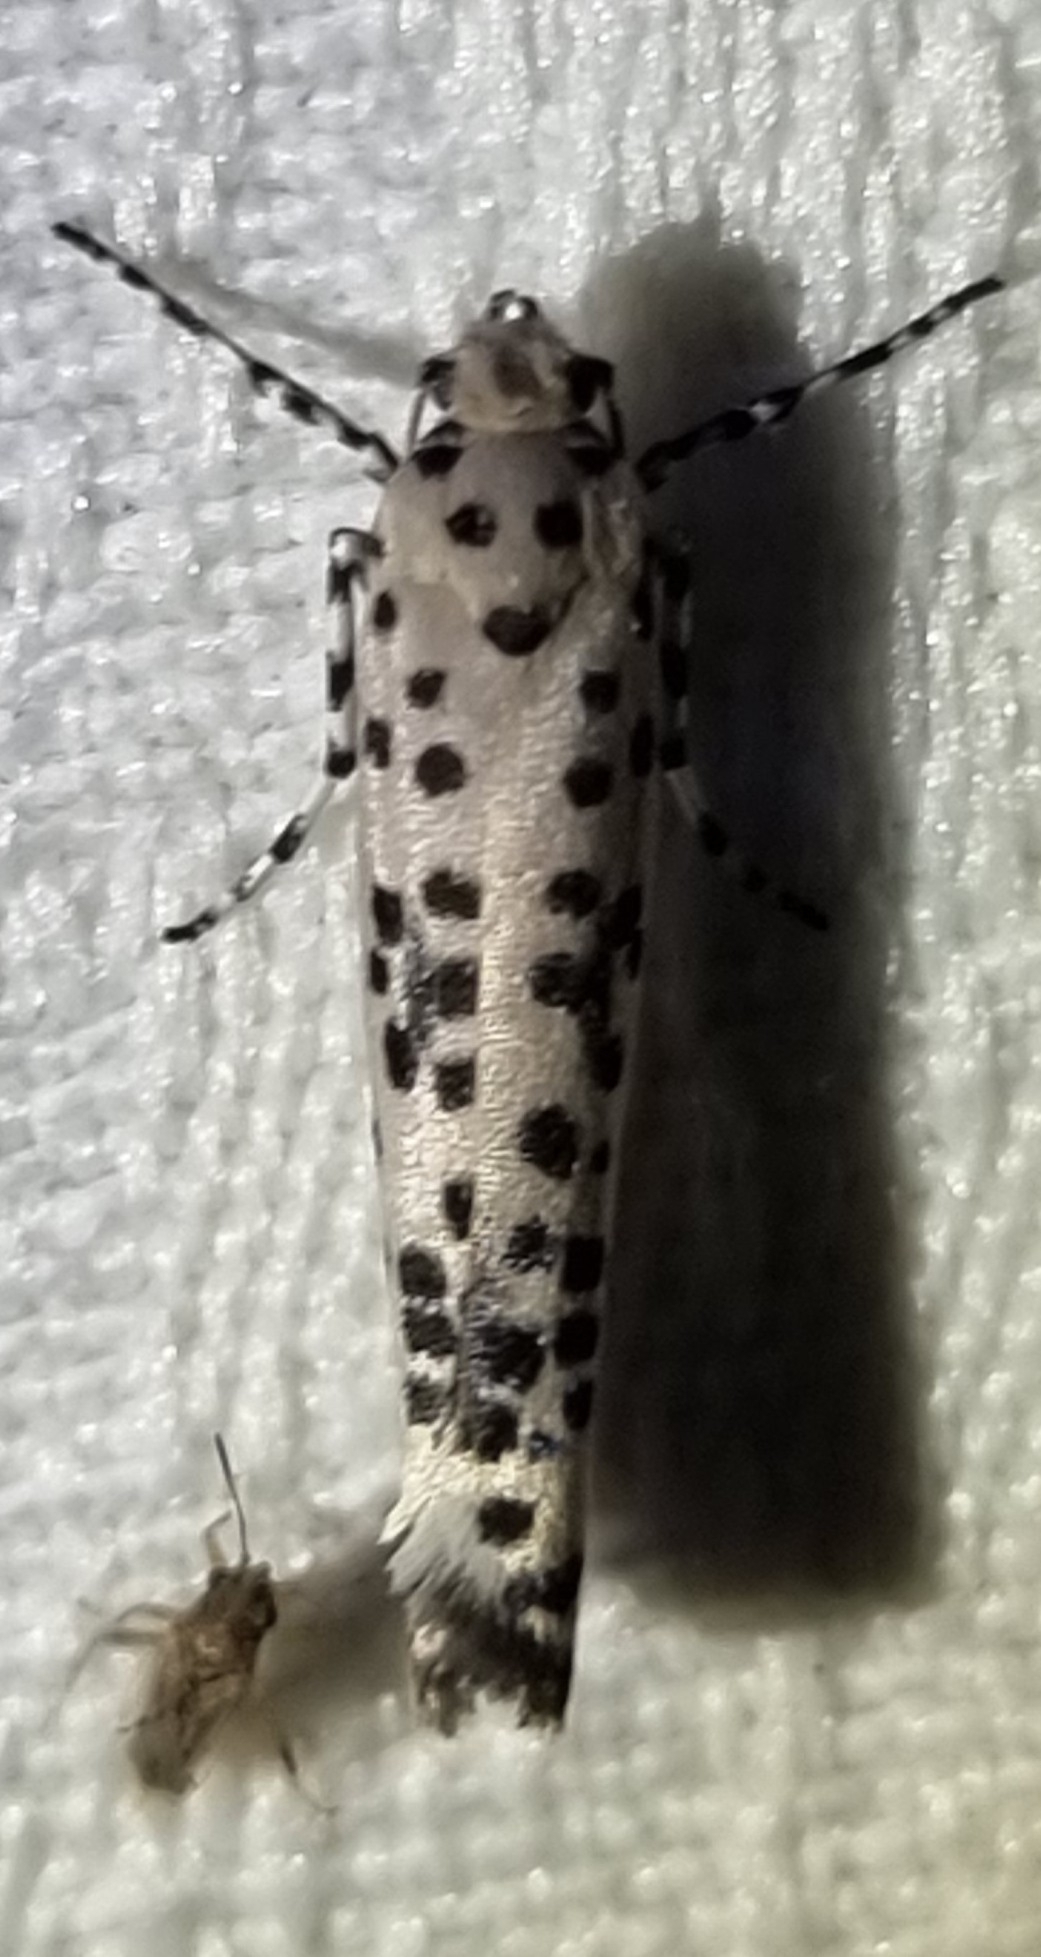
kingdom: Animalia
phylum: Arthropoda
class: Insecta
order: Lepidoptera
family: Yponomeutidae
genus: Yponomeuta
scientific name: Yponomeuta pustulellus
